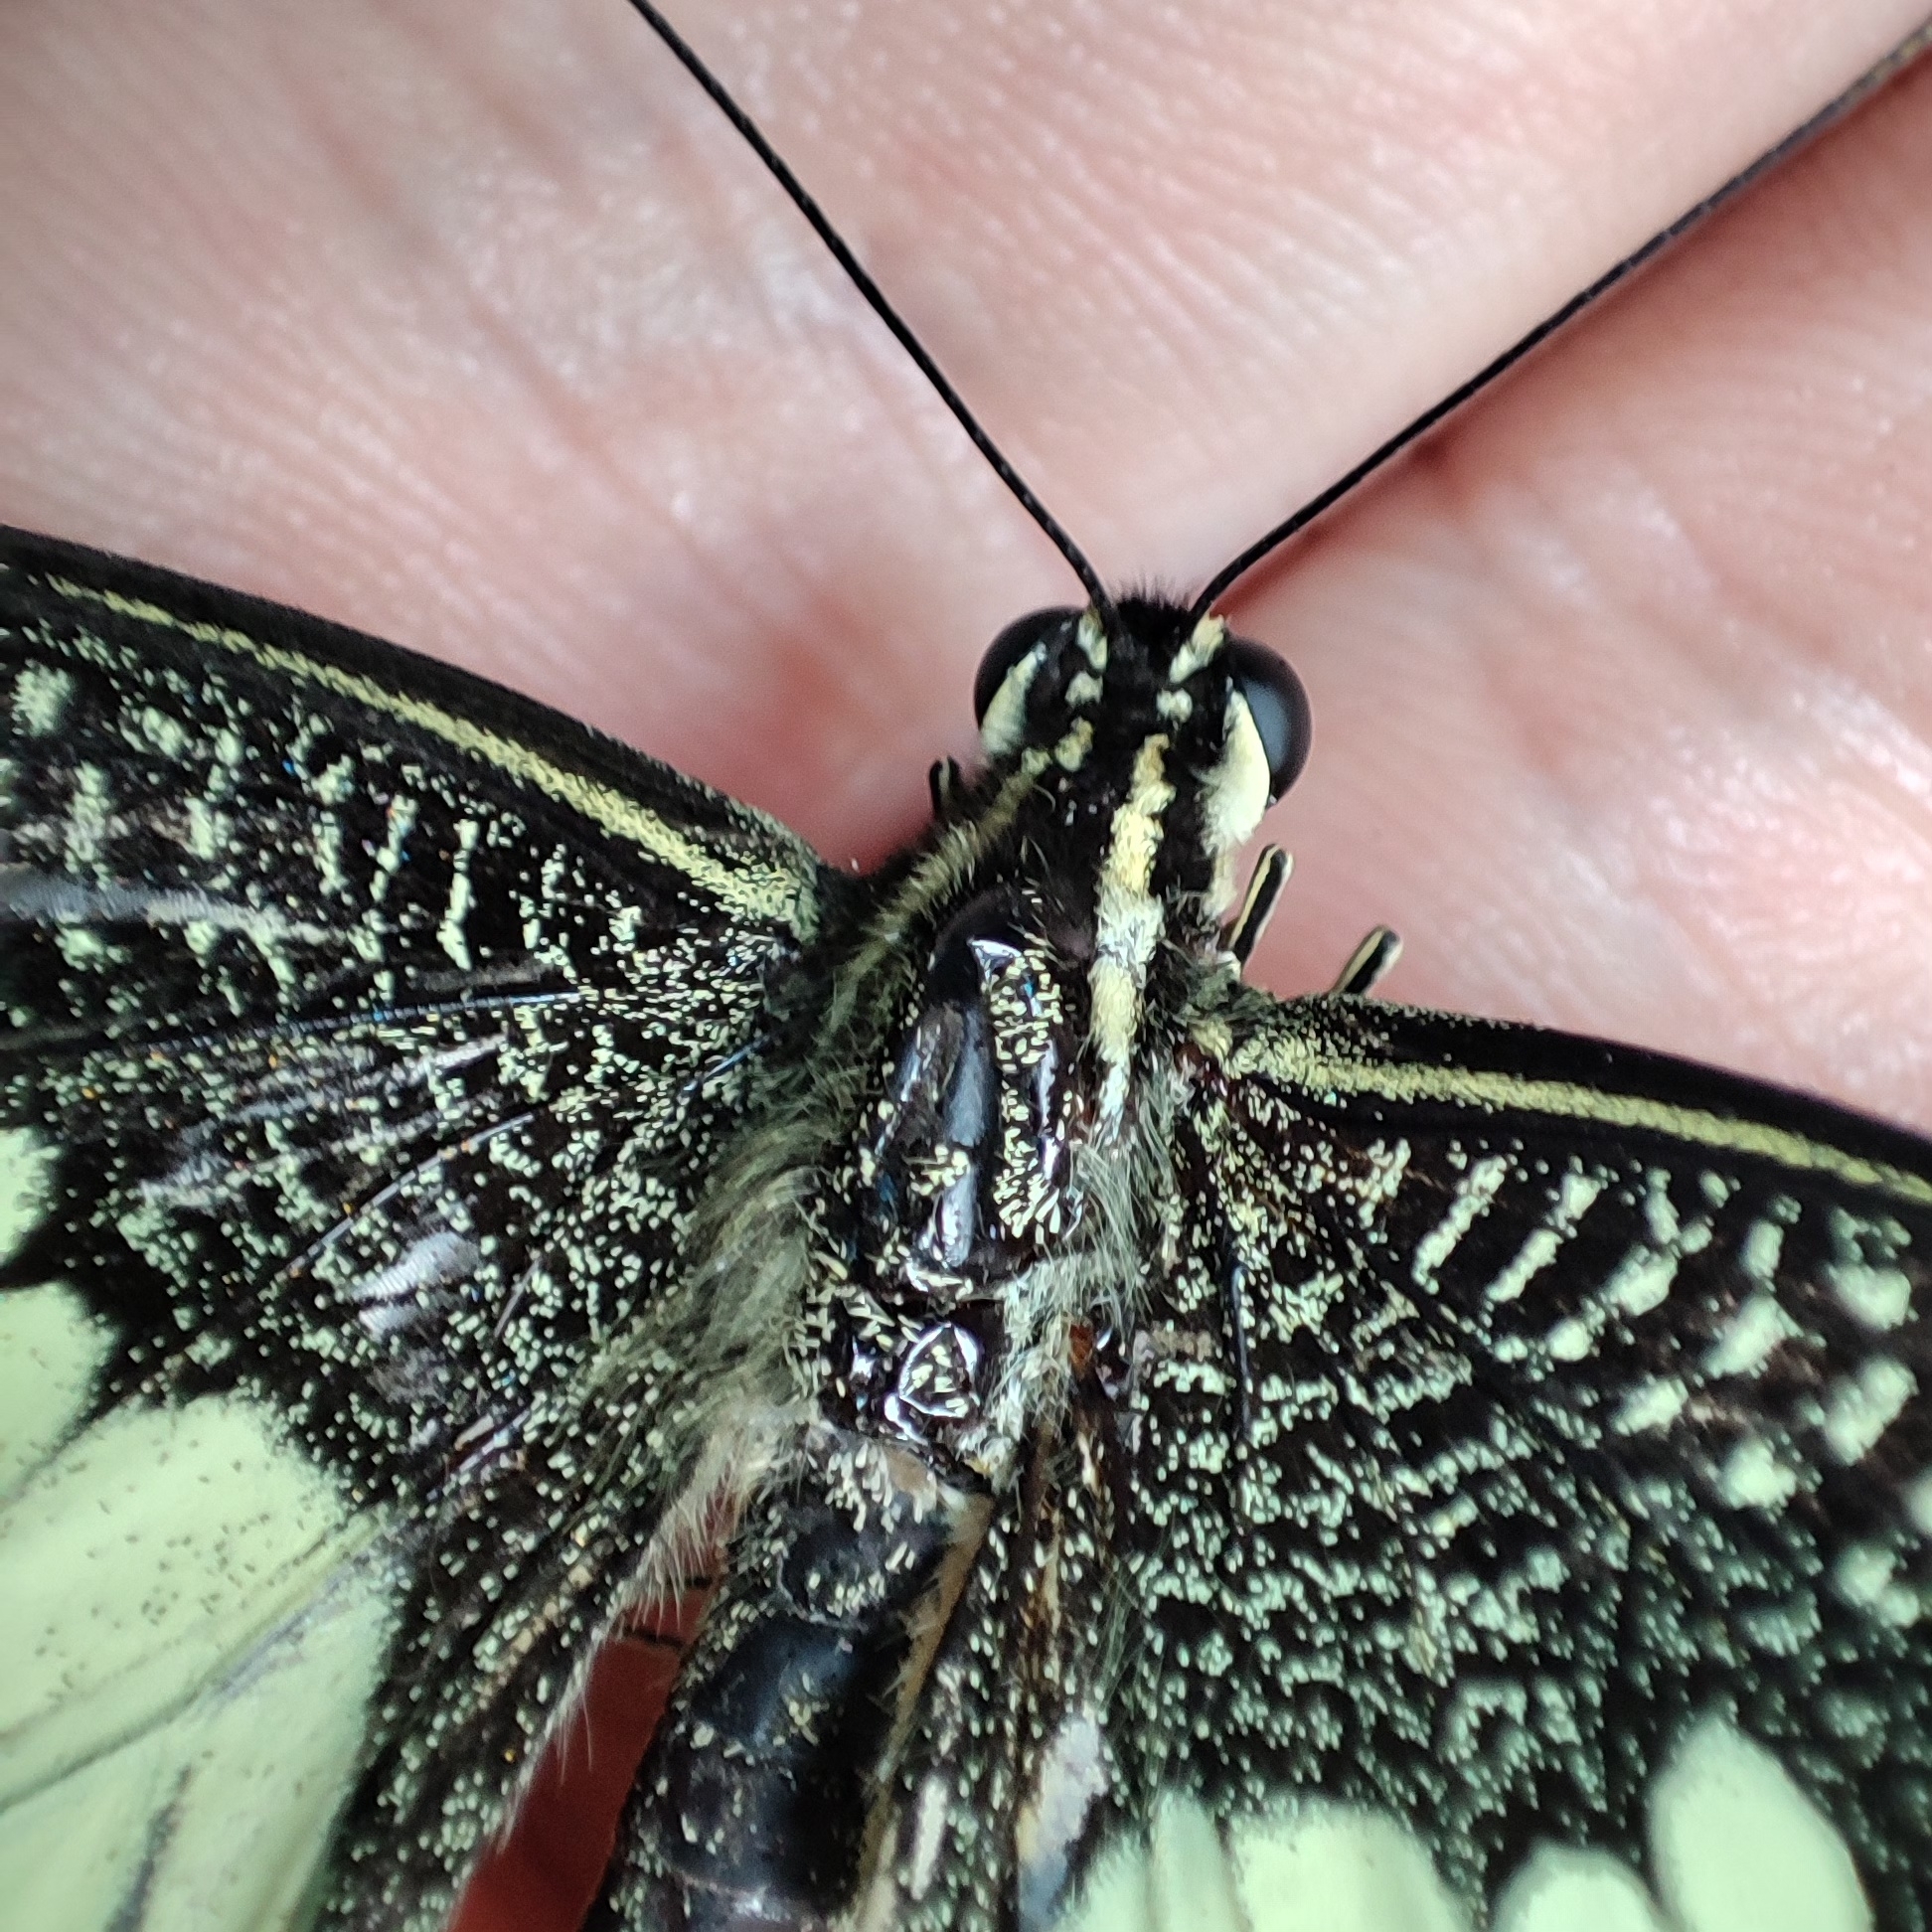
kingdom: Animalia
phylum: Arthropoda
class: Insecta
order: Lepidoptera
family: Papilionidae
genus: Papilio
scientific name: Papilio demoleus
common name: Lime butterfly
